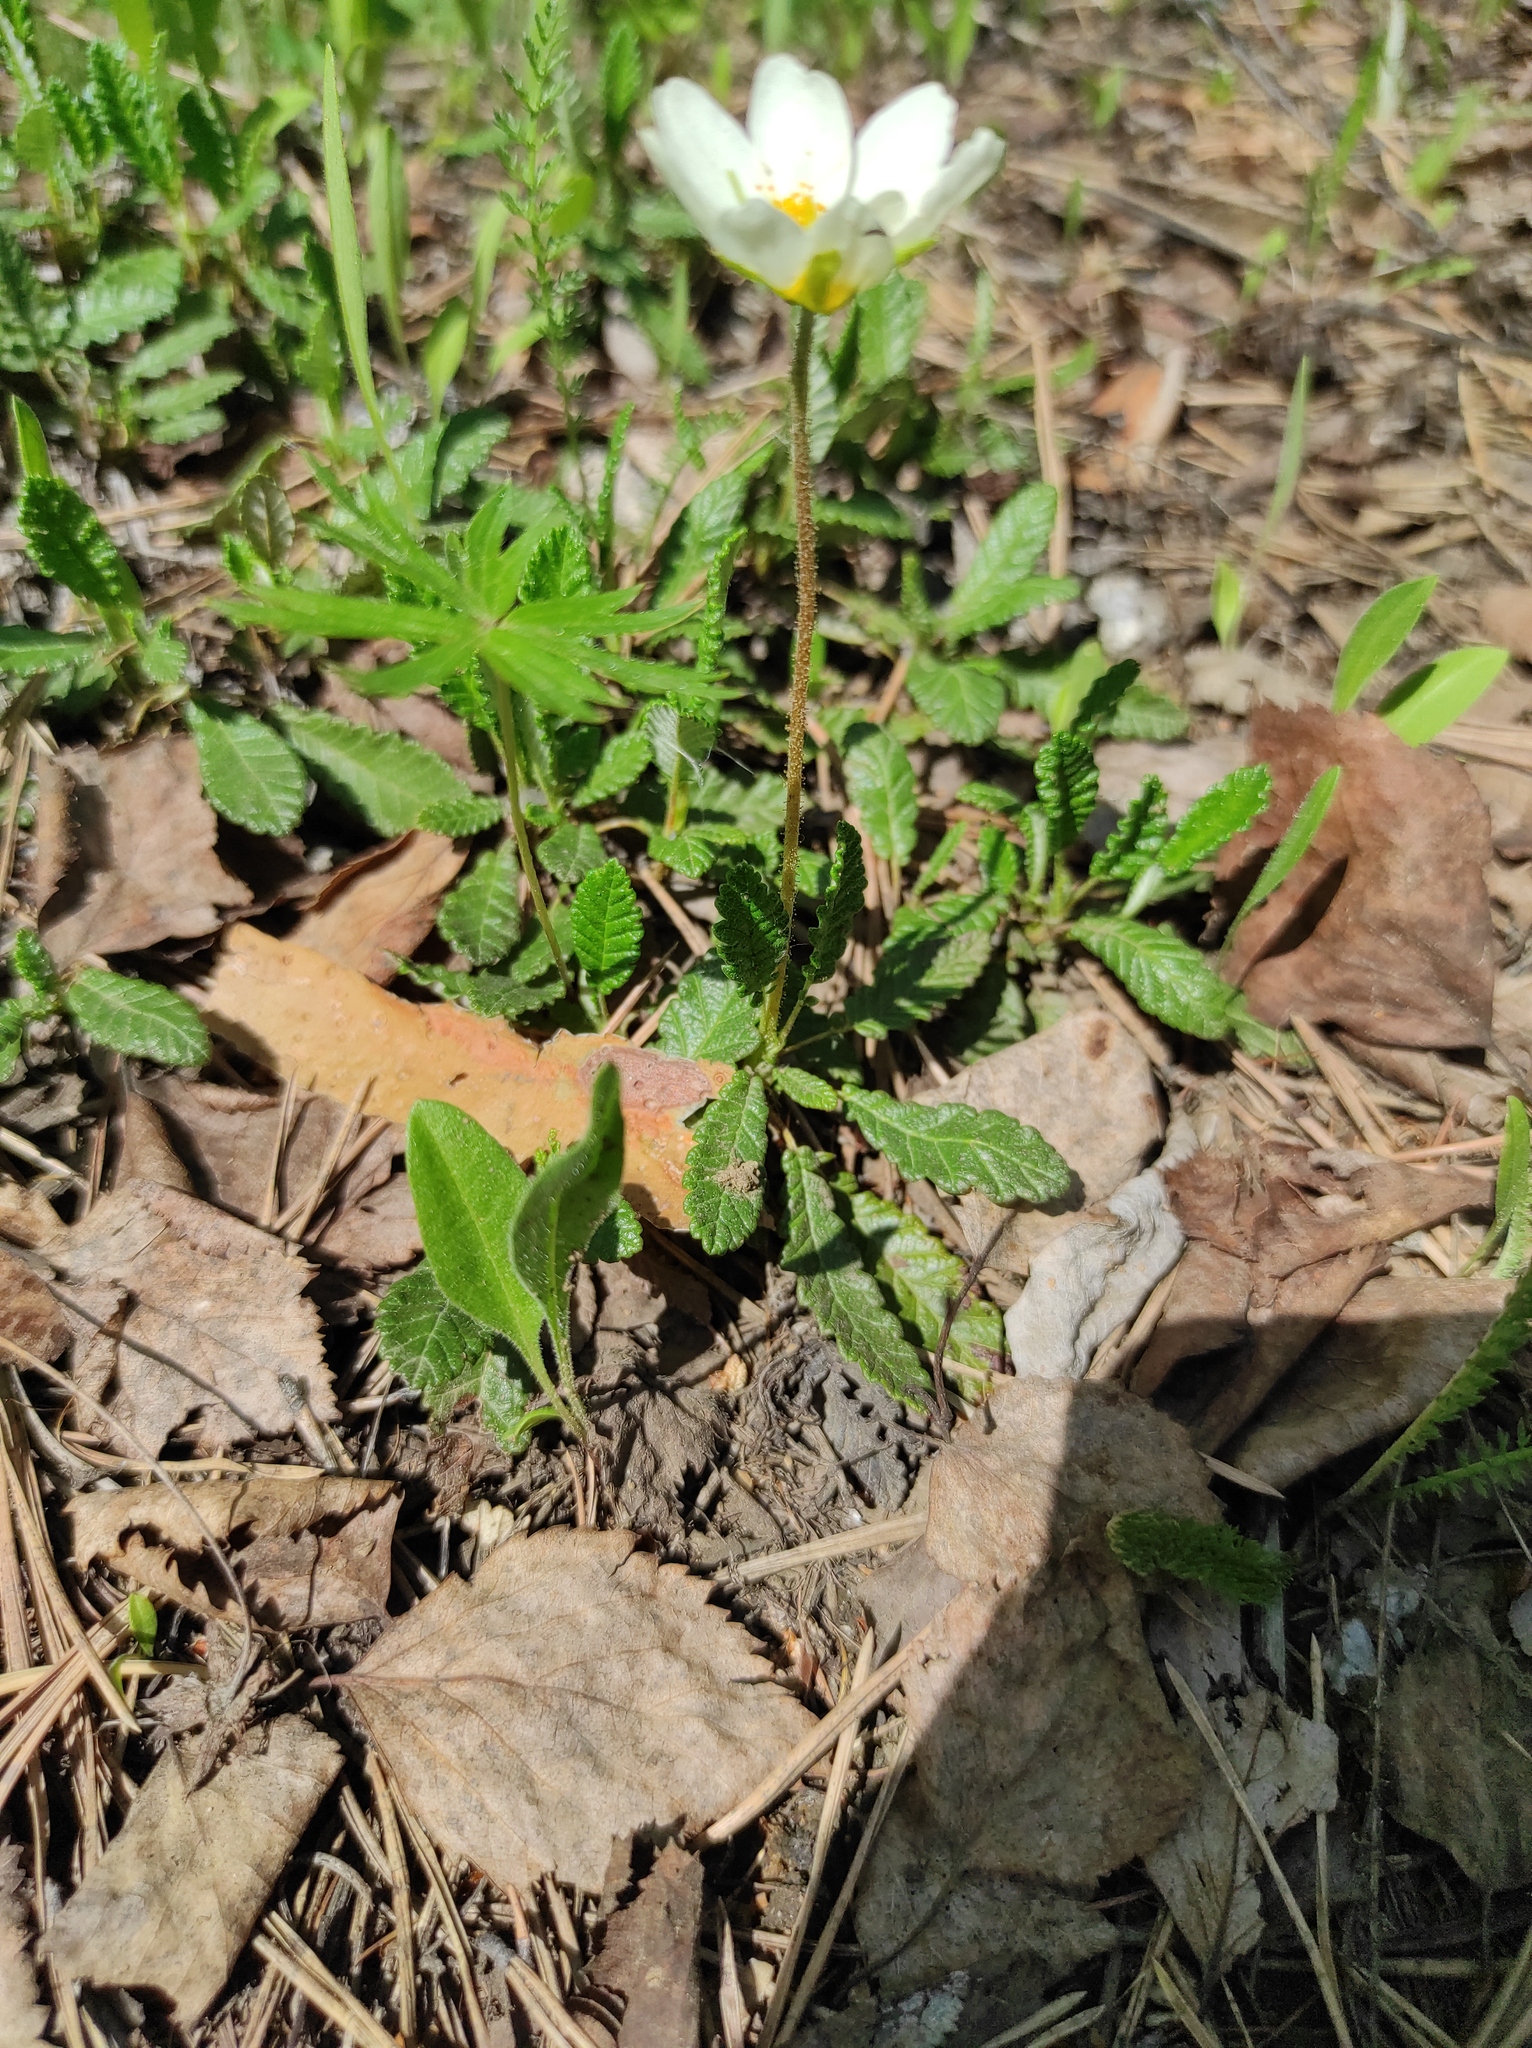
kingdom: Plantae
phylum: Tracheophyta
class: Magnoliopsida
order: Rosales
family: Rosaceae
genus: Dryas
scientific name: Dryas octopetala
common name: Eight-petal mountain-avens
